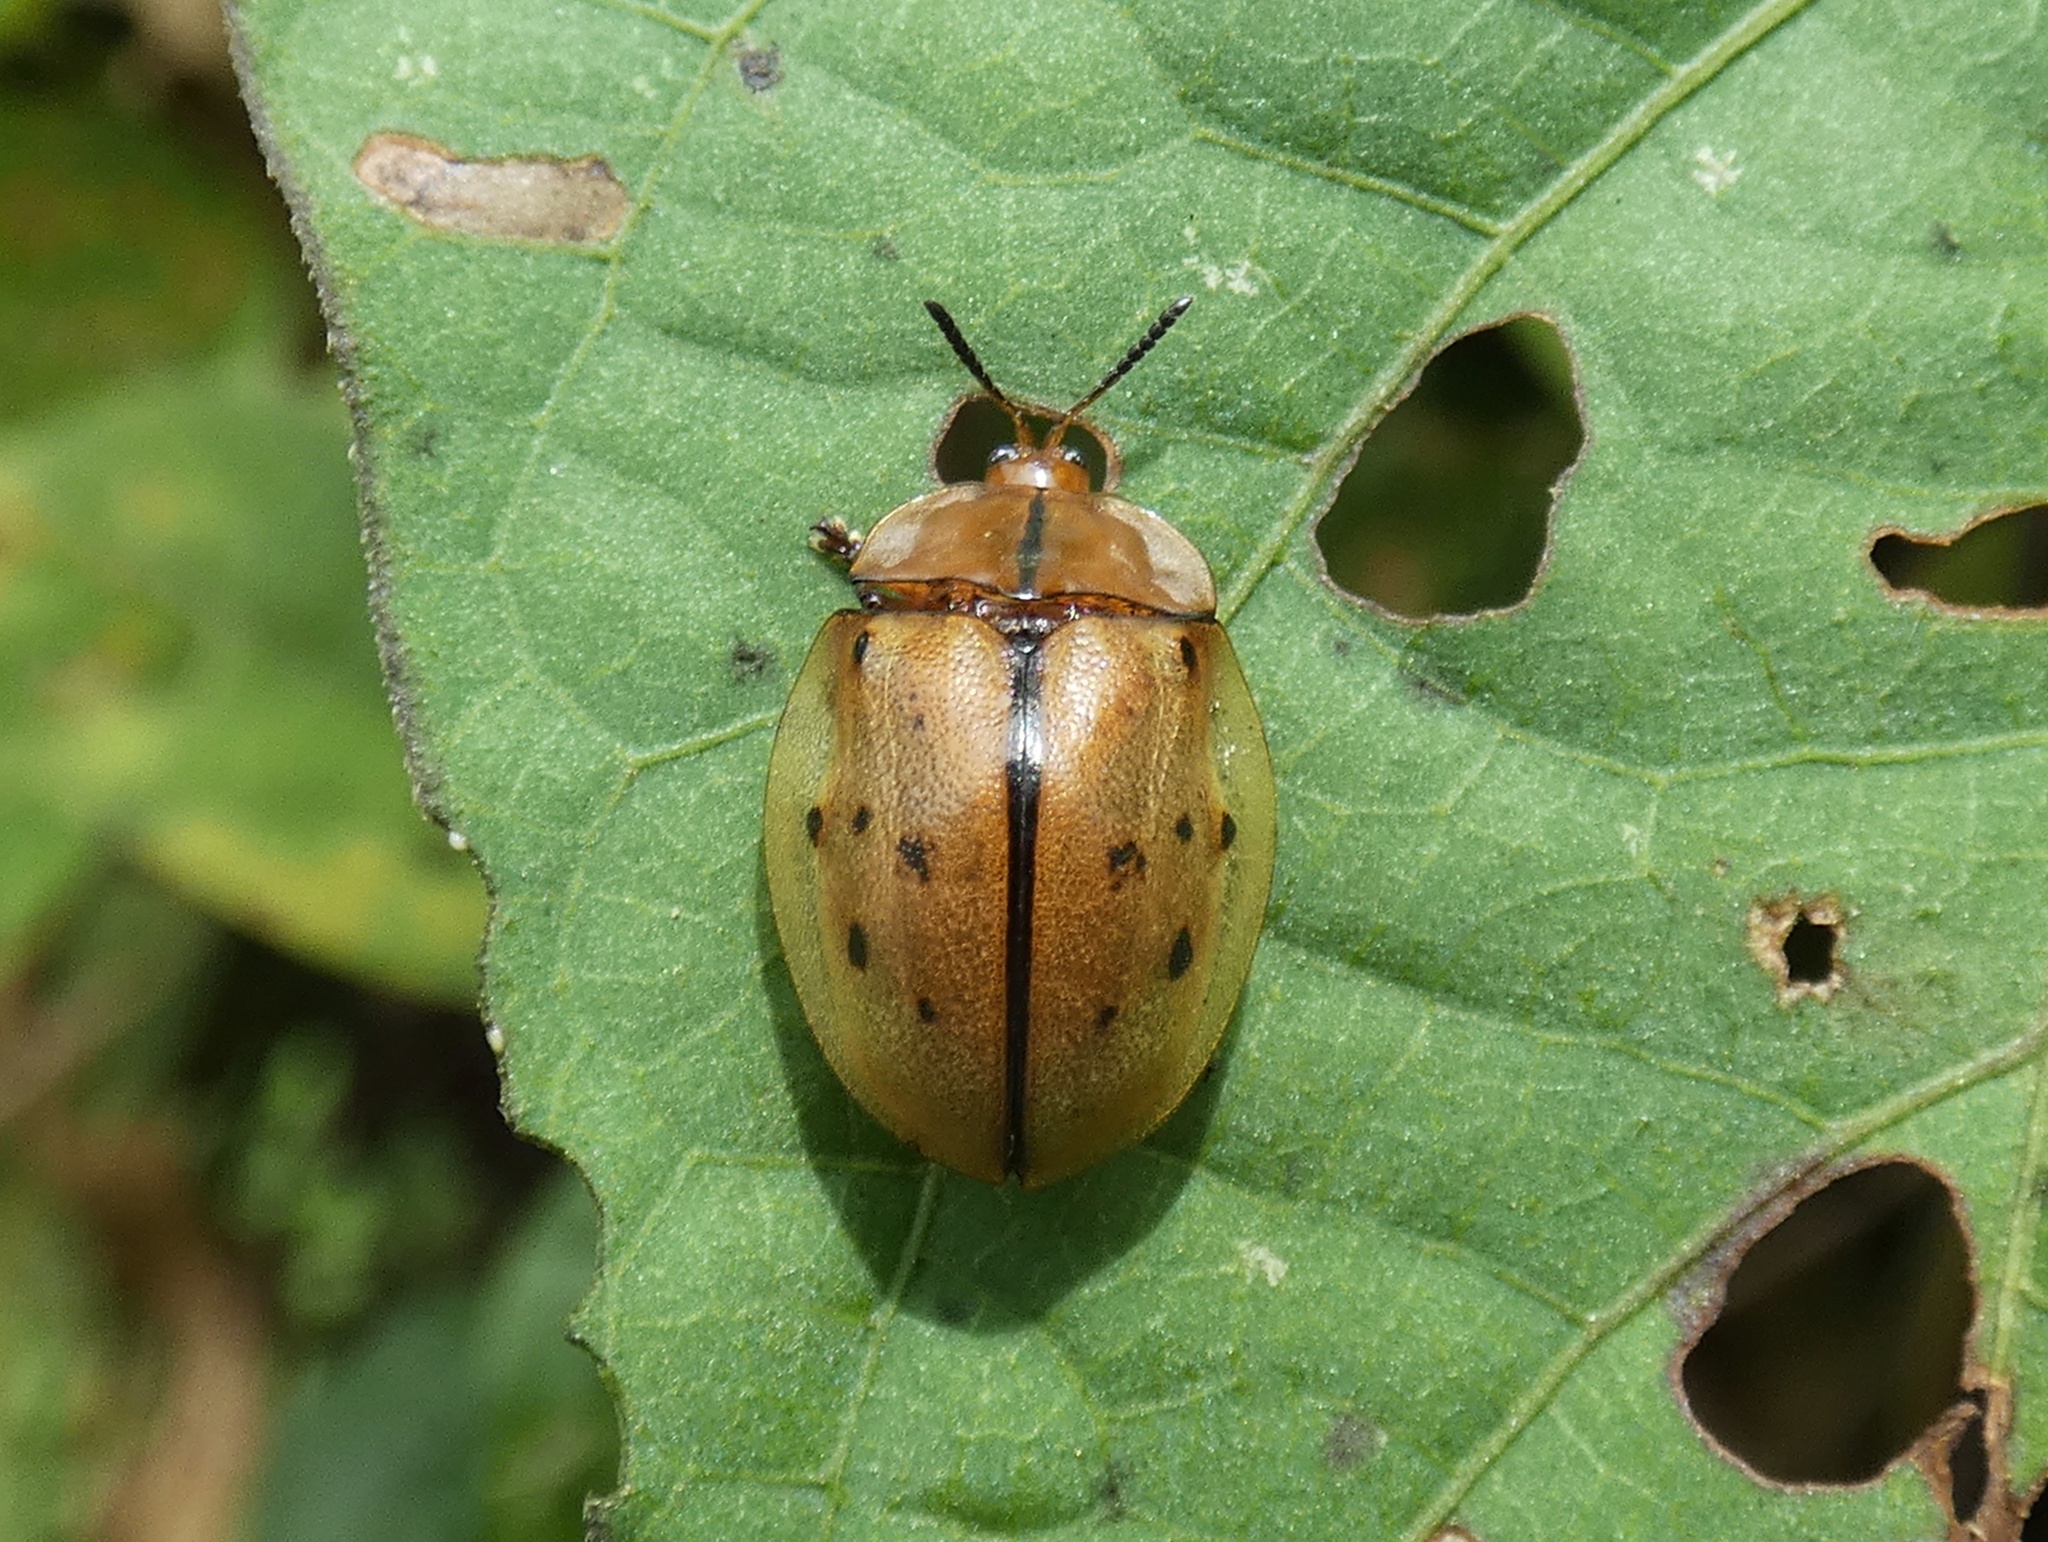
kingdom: Animalia
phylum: Arthropoda
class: Insecta
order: Coleoptera
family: Chrysomelidae
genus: Stolas
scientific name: Stolas pertusa
